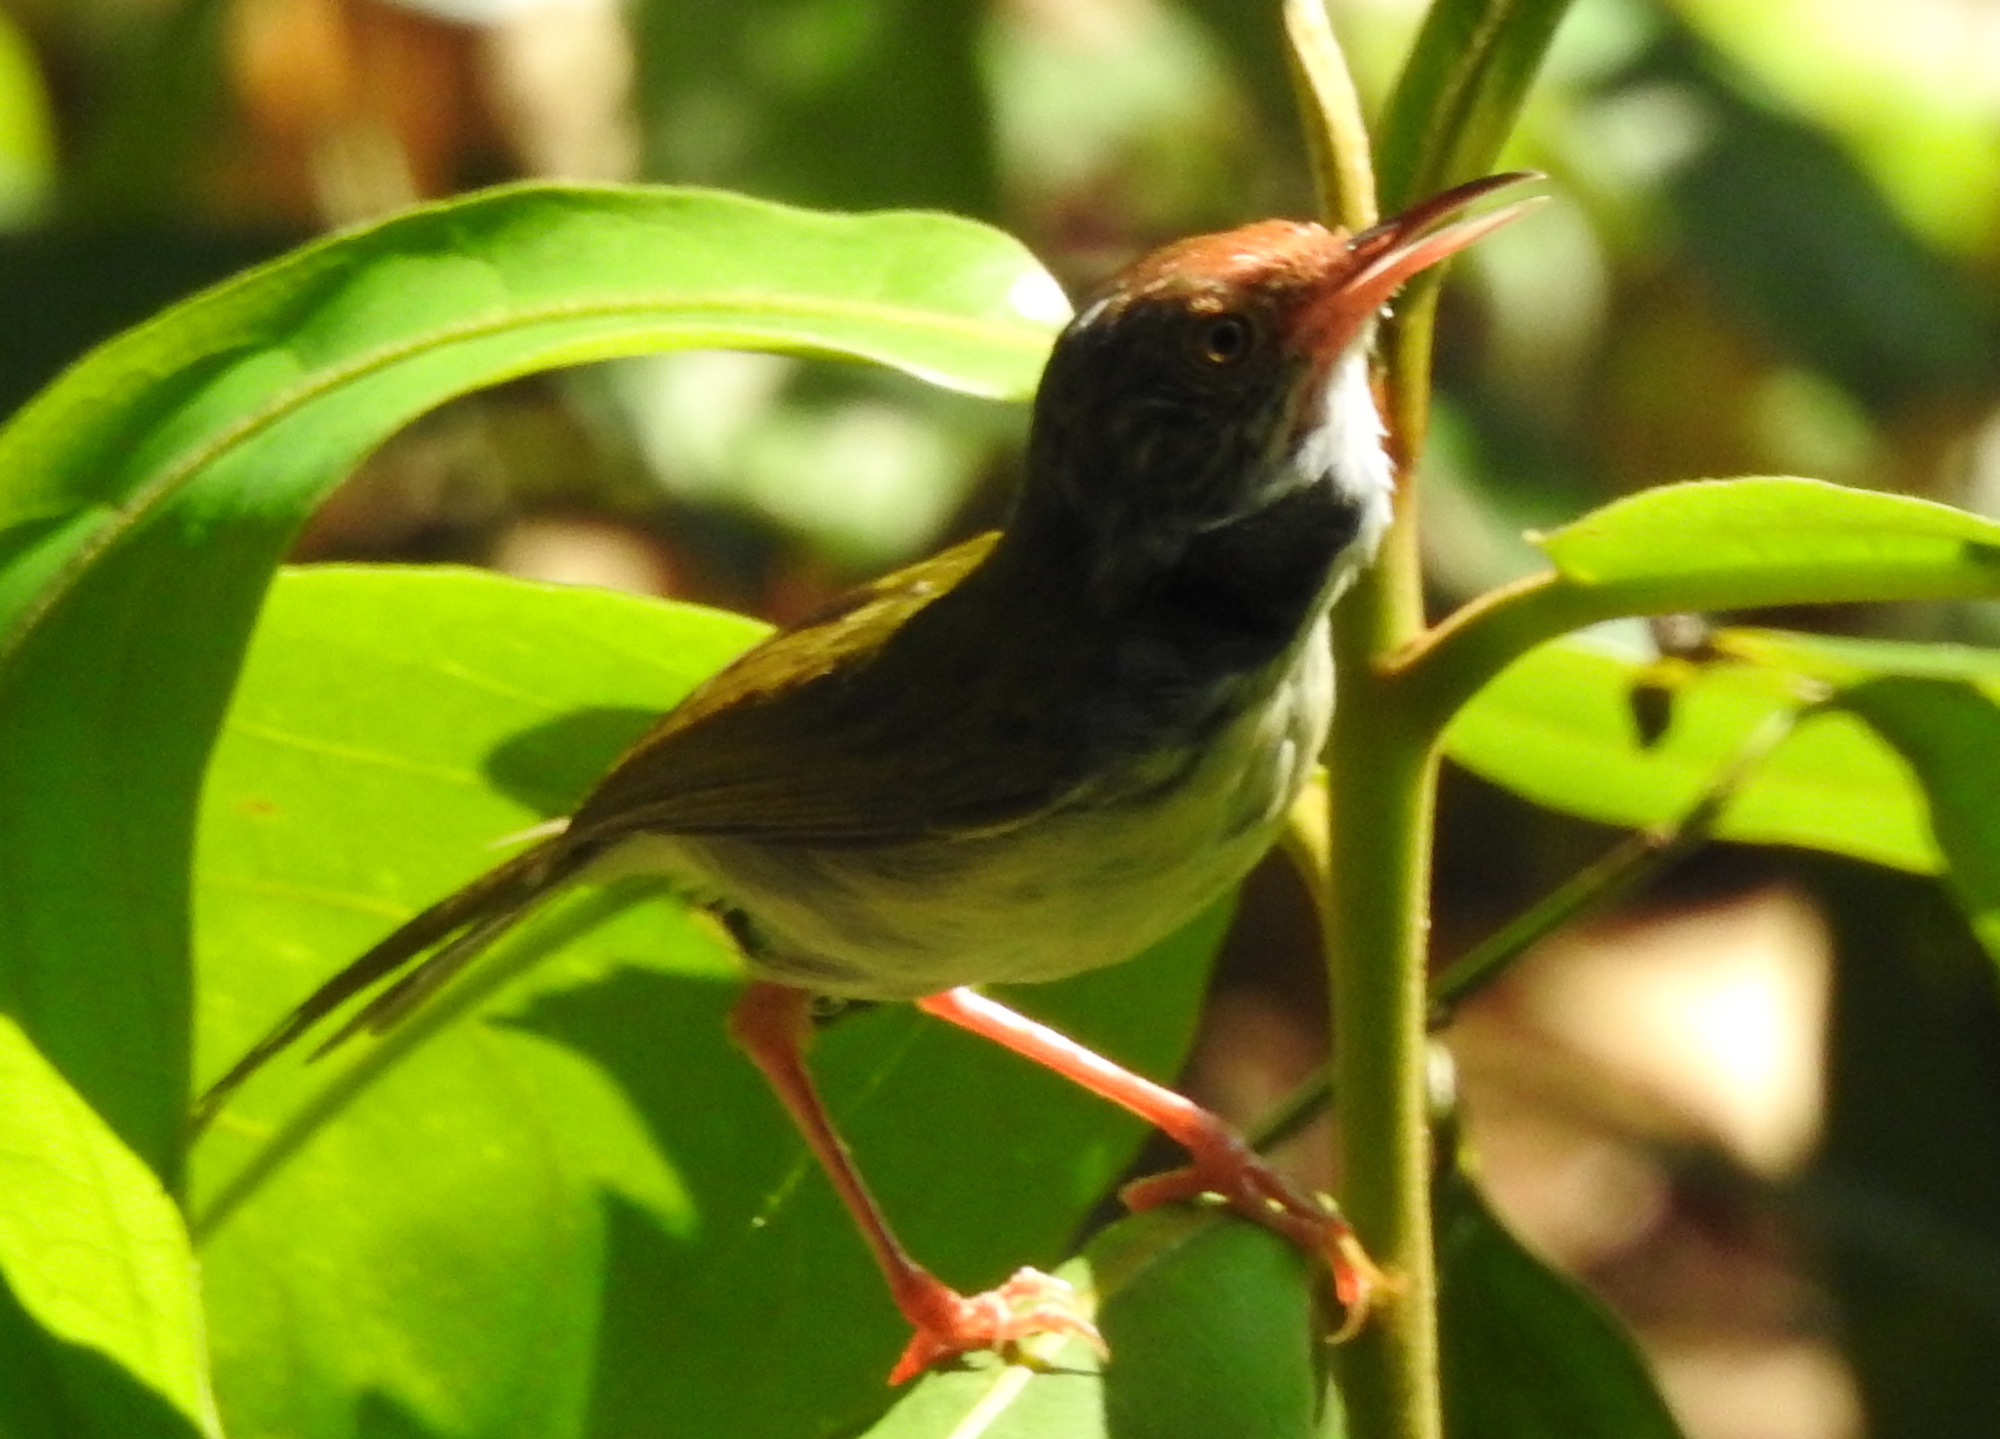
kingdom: Animalia
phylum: Chordata
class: Aves
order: Passeriformes
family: Cisticolidae
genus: Orthotomus
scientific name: Orthotomus sutorius
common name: Common tailorbird
